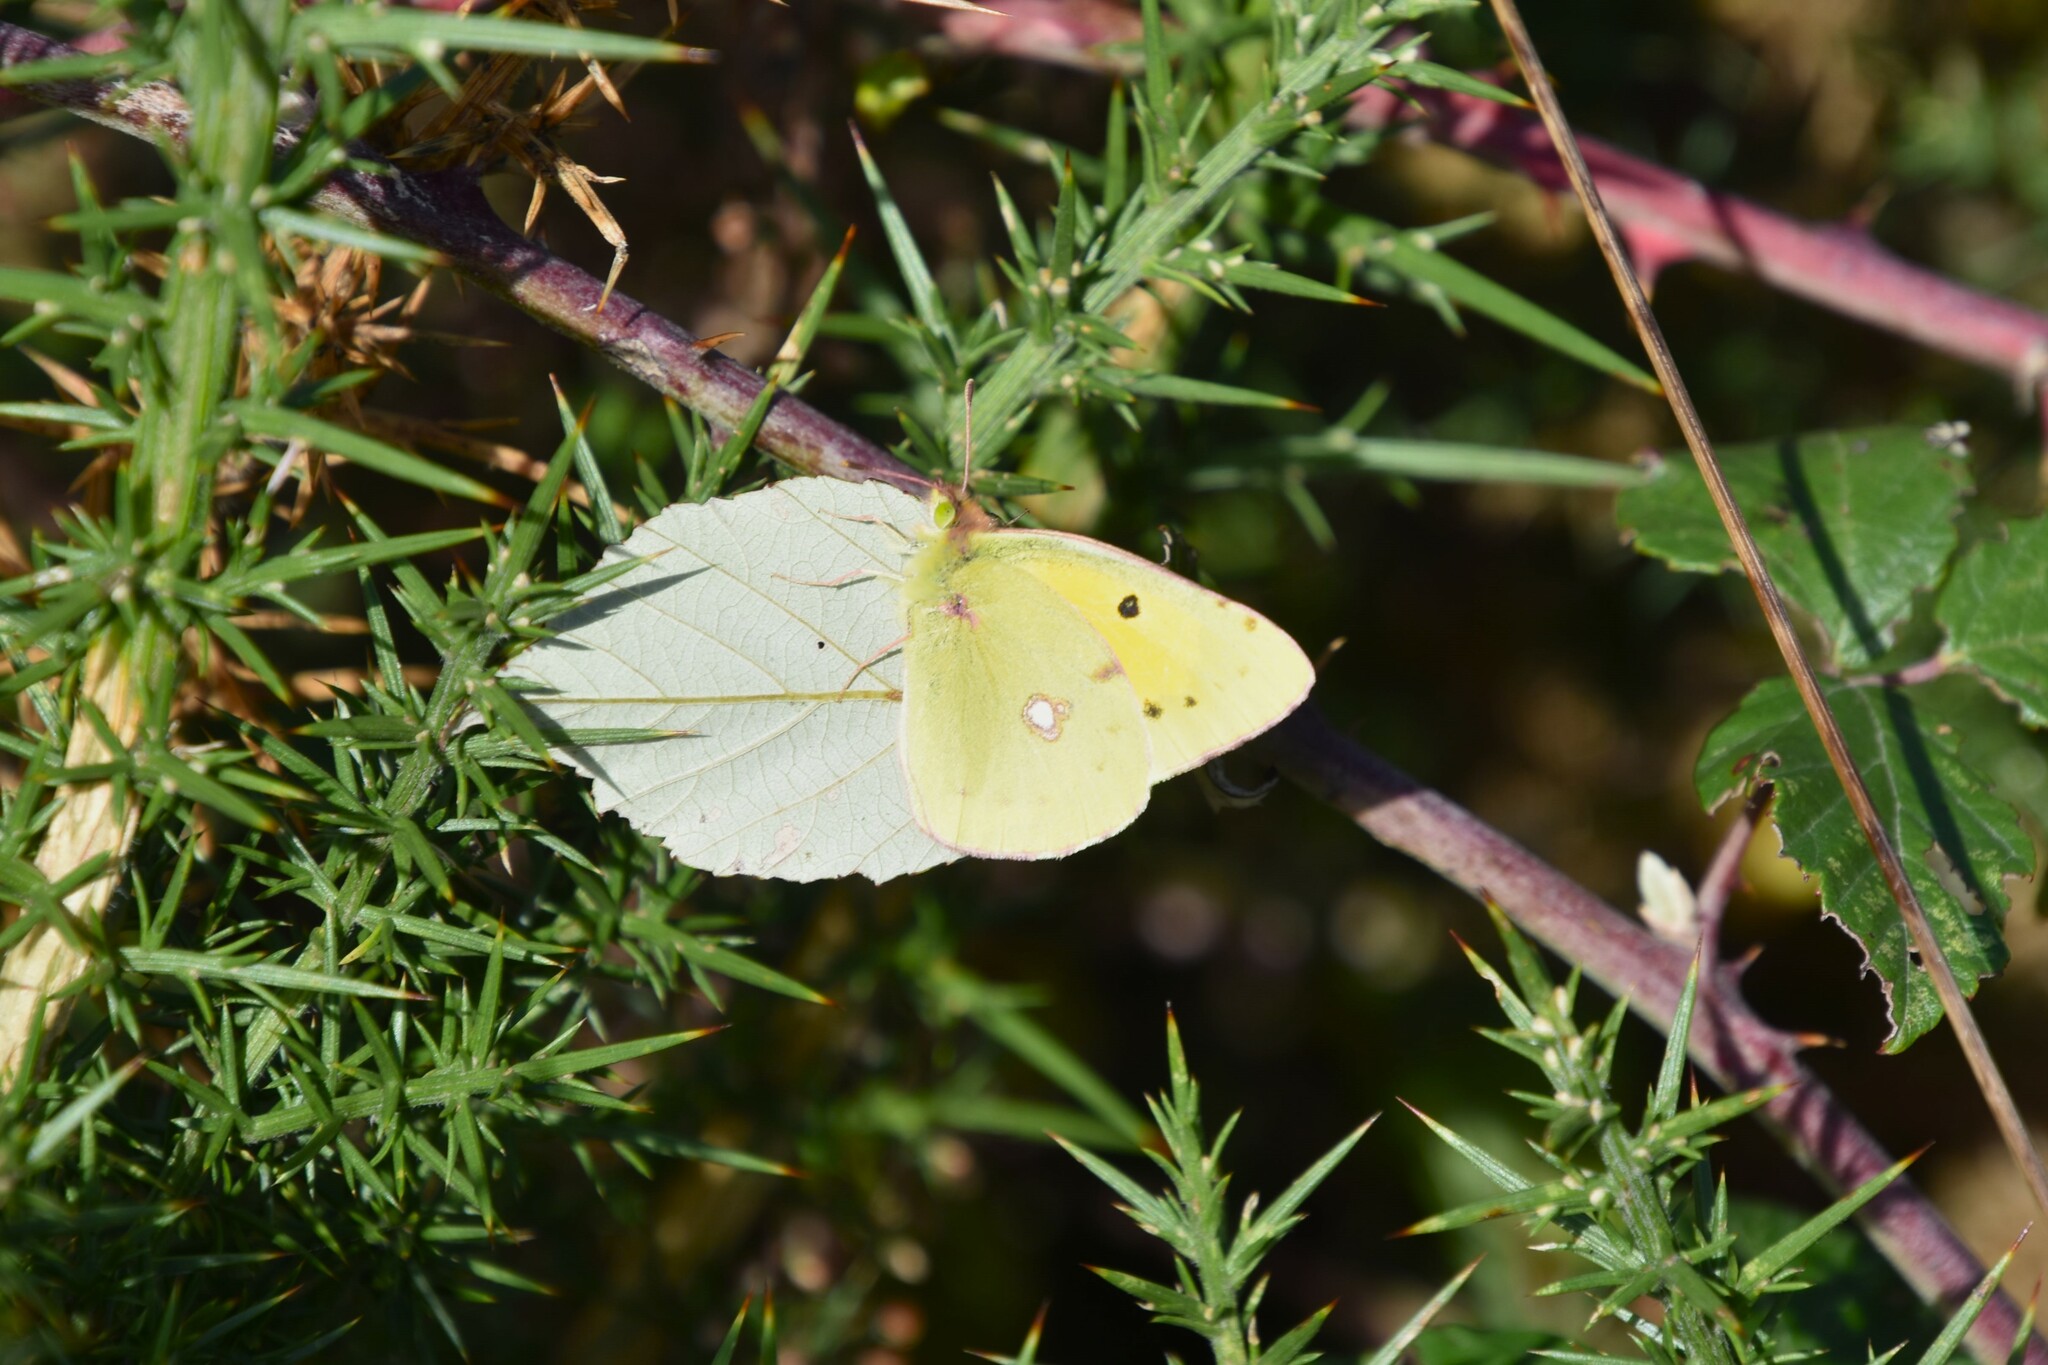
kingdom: Animalia
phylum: Arthropoda
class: Insecta
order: Lepidoptera
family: Pieridae
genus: Colias
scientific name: Colias croceus
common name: Clouded yellow
